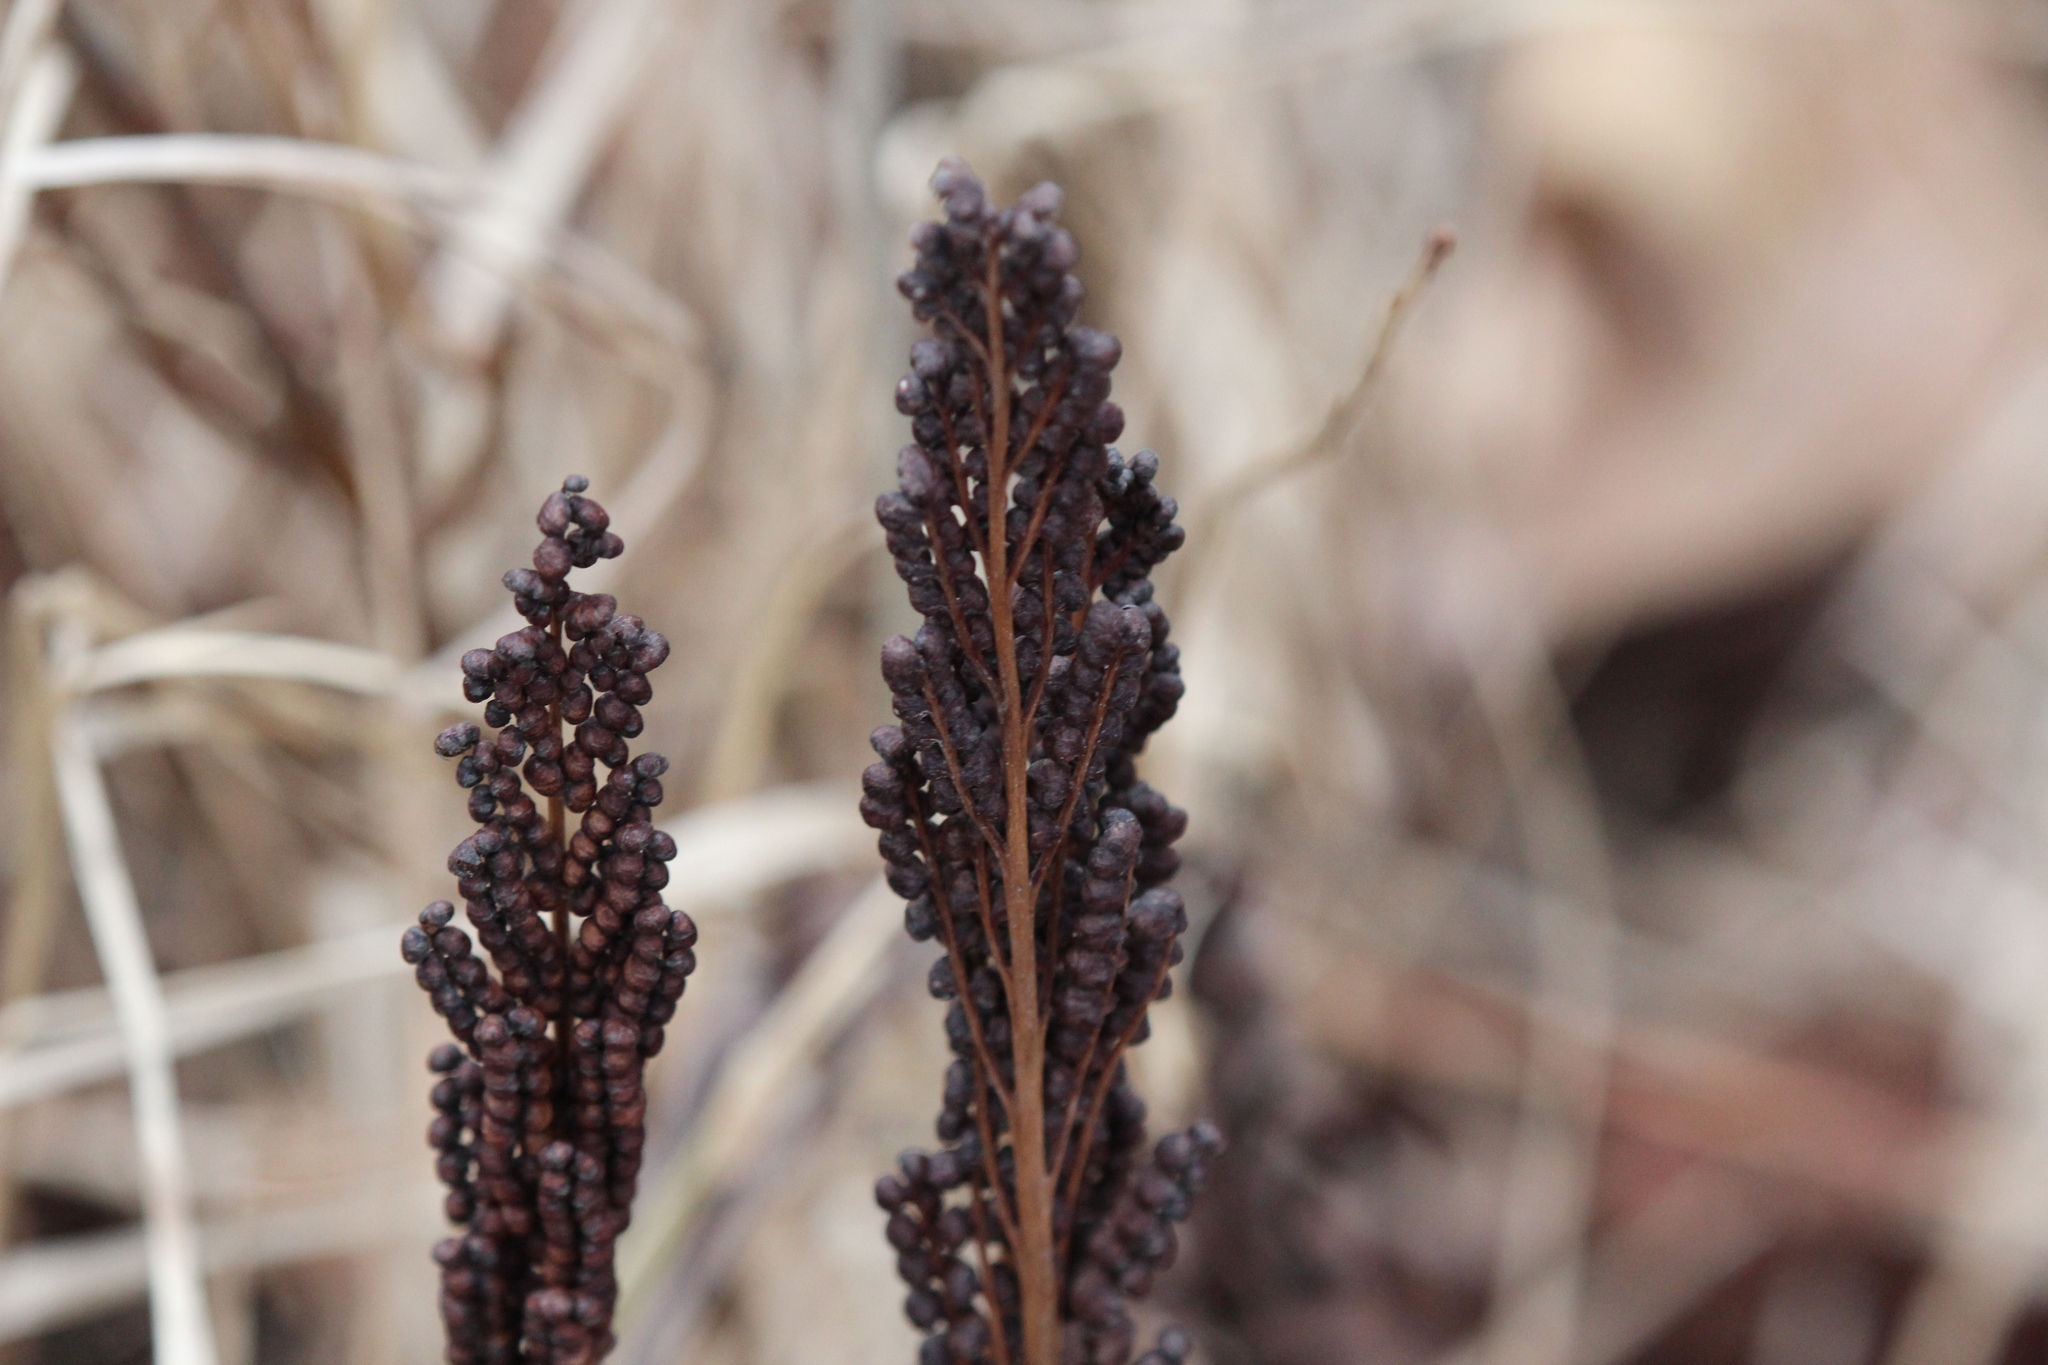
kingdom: Plantae
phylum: Tracheophyta
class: Polypodiopsida
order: Polypodiales
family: Onocleaceae
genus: Onoclea
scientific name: Onoclea sensibilis
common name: Sensitive fern
